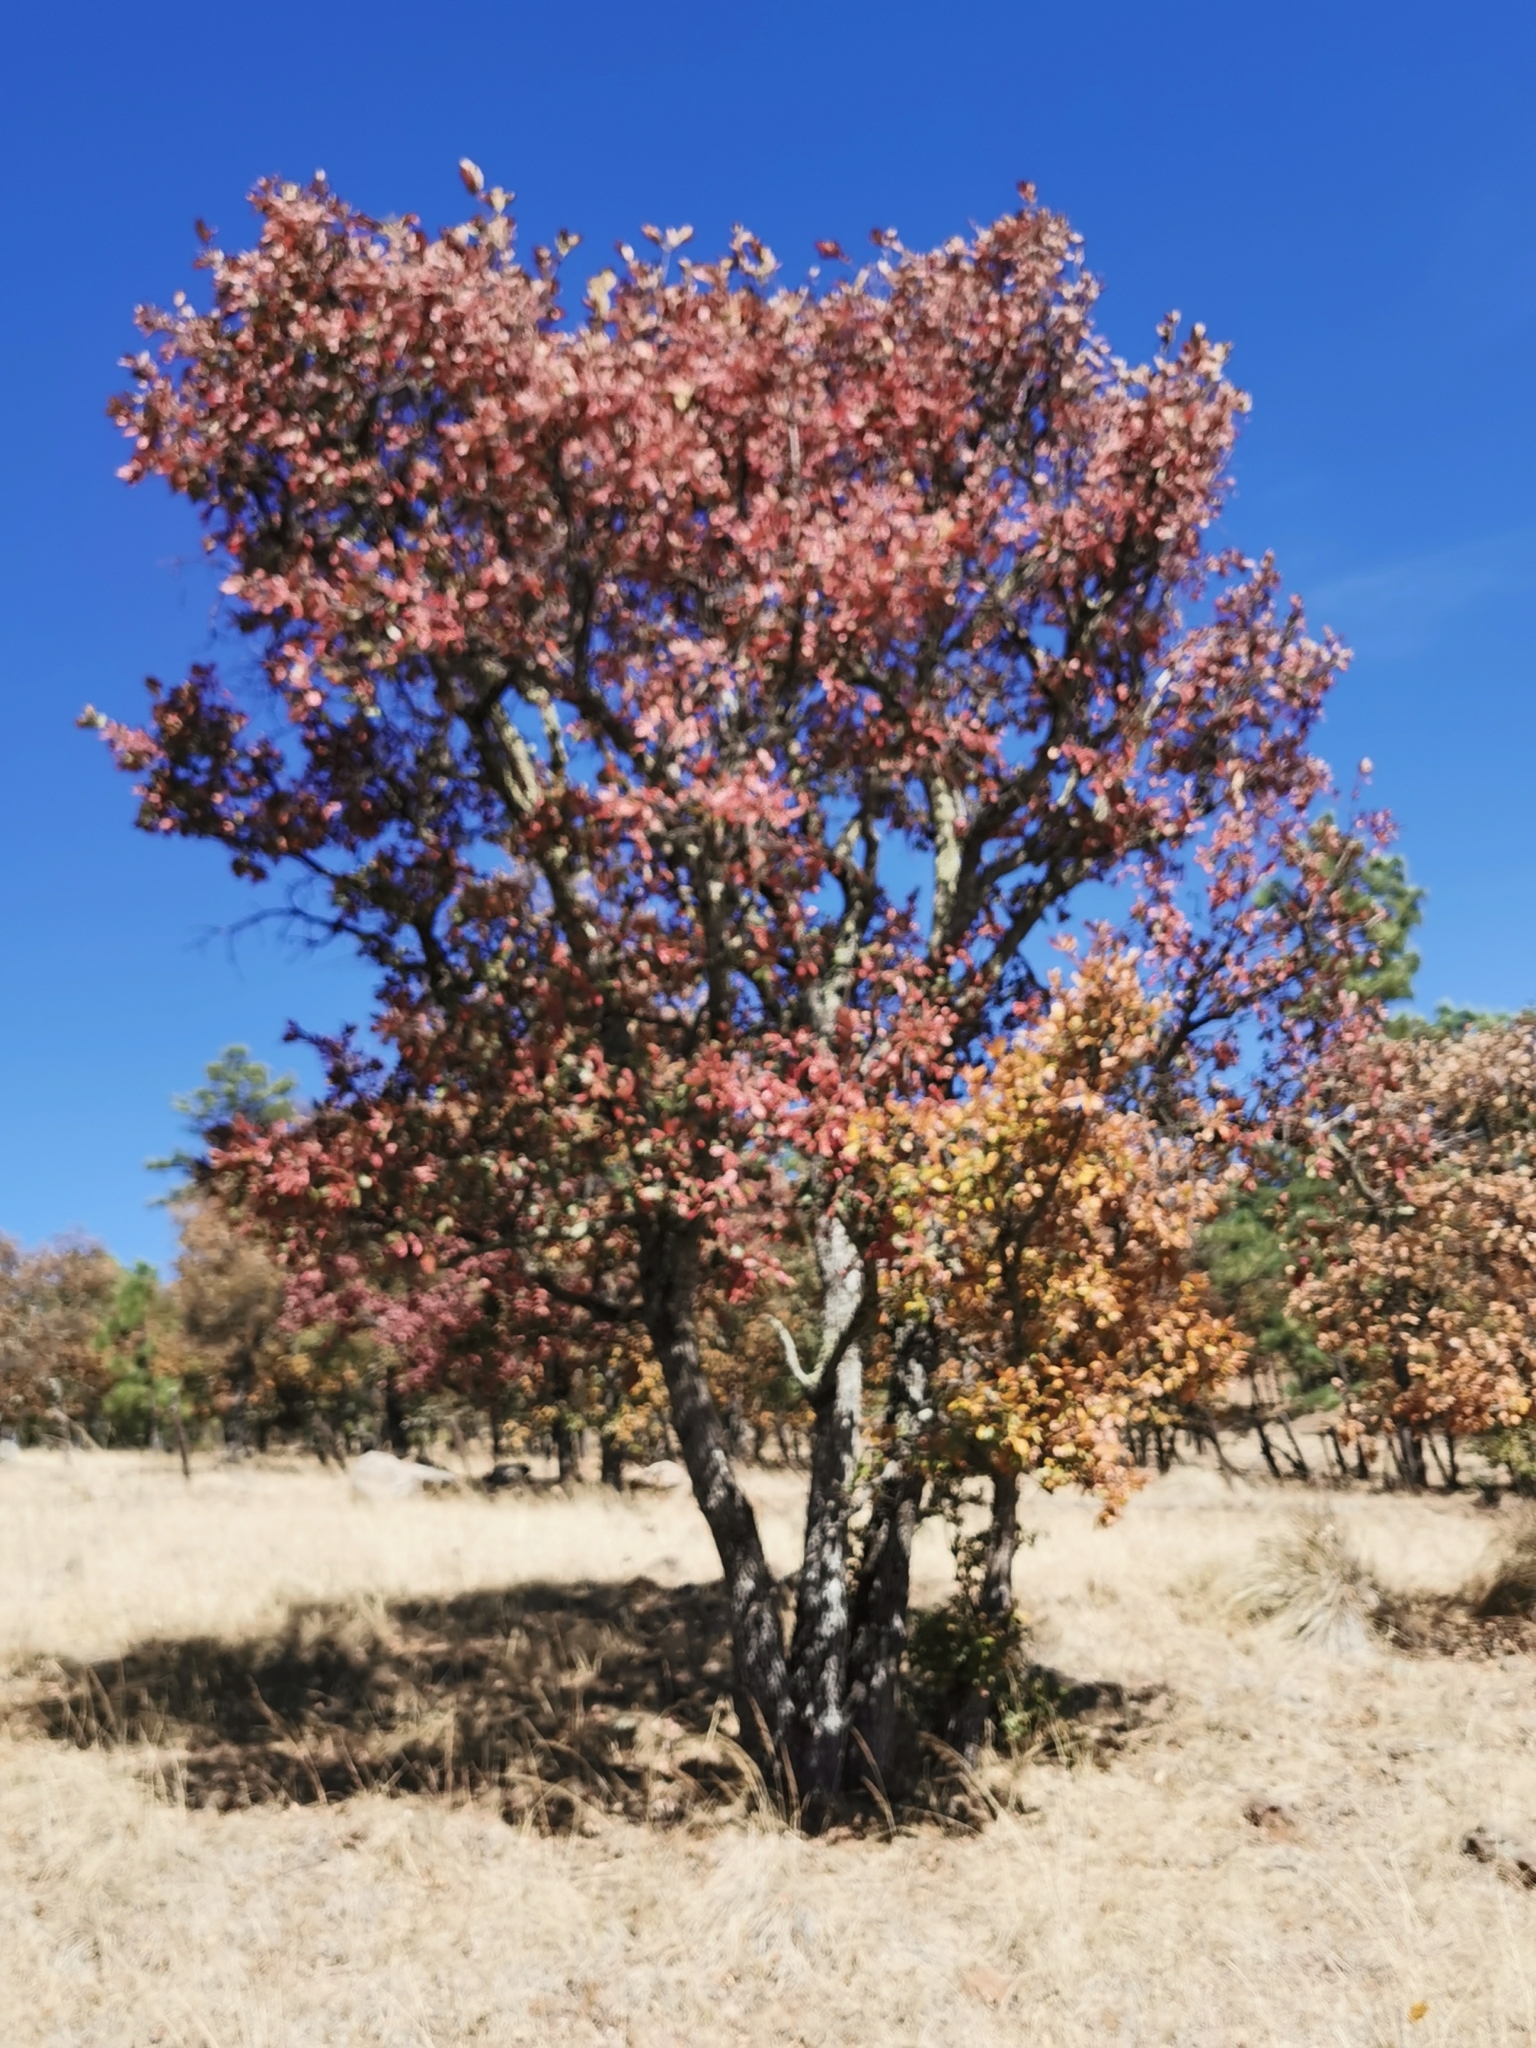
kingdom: Plantae
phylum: Tracheophyta
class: Magnoliopsida
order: Fagales
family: Fagaceae
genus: Quercus
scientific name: Quercus convallata
